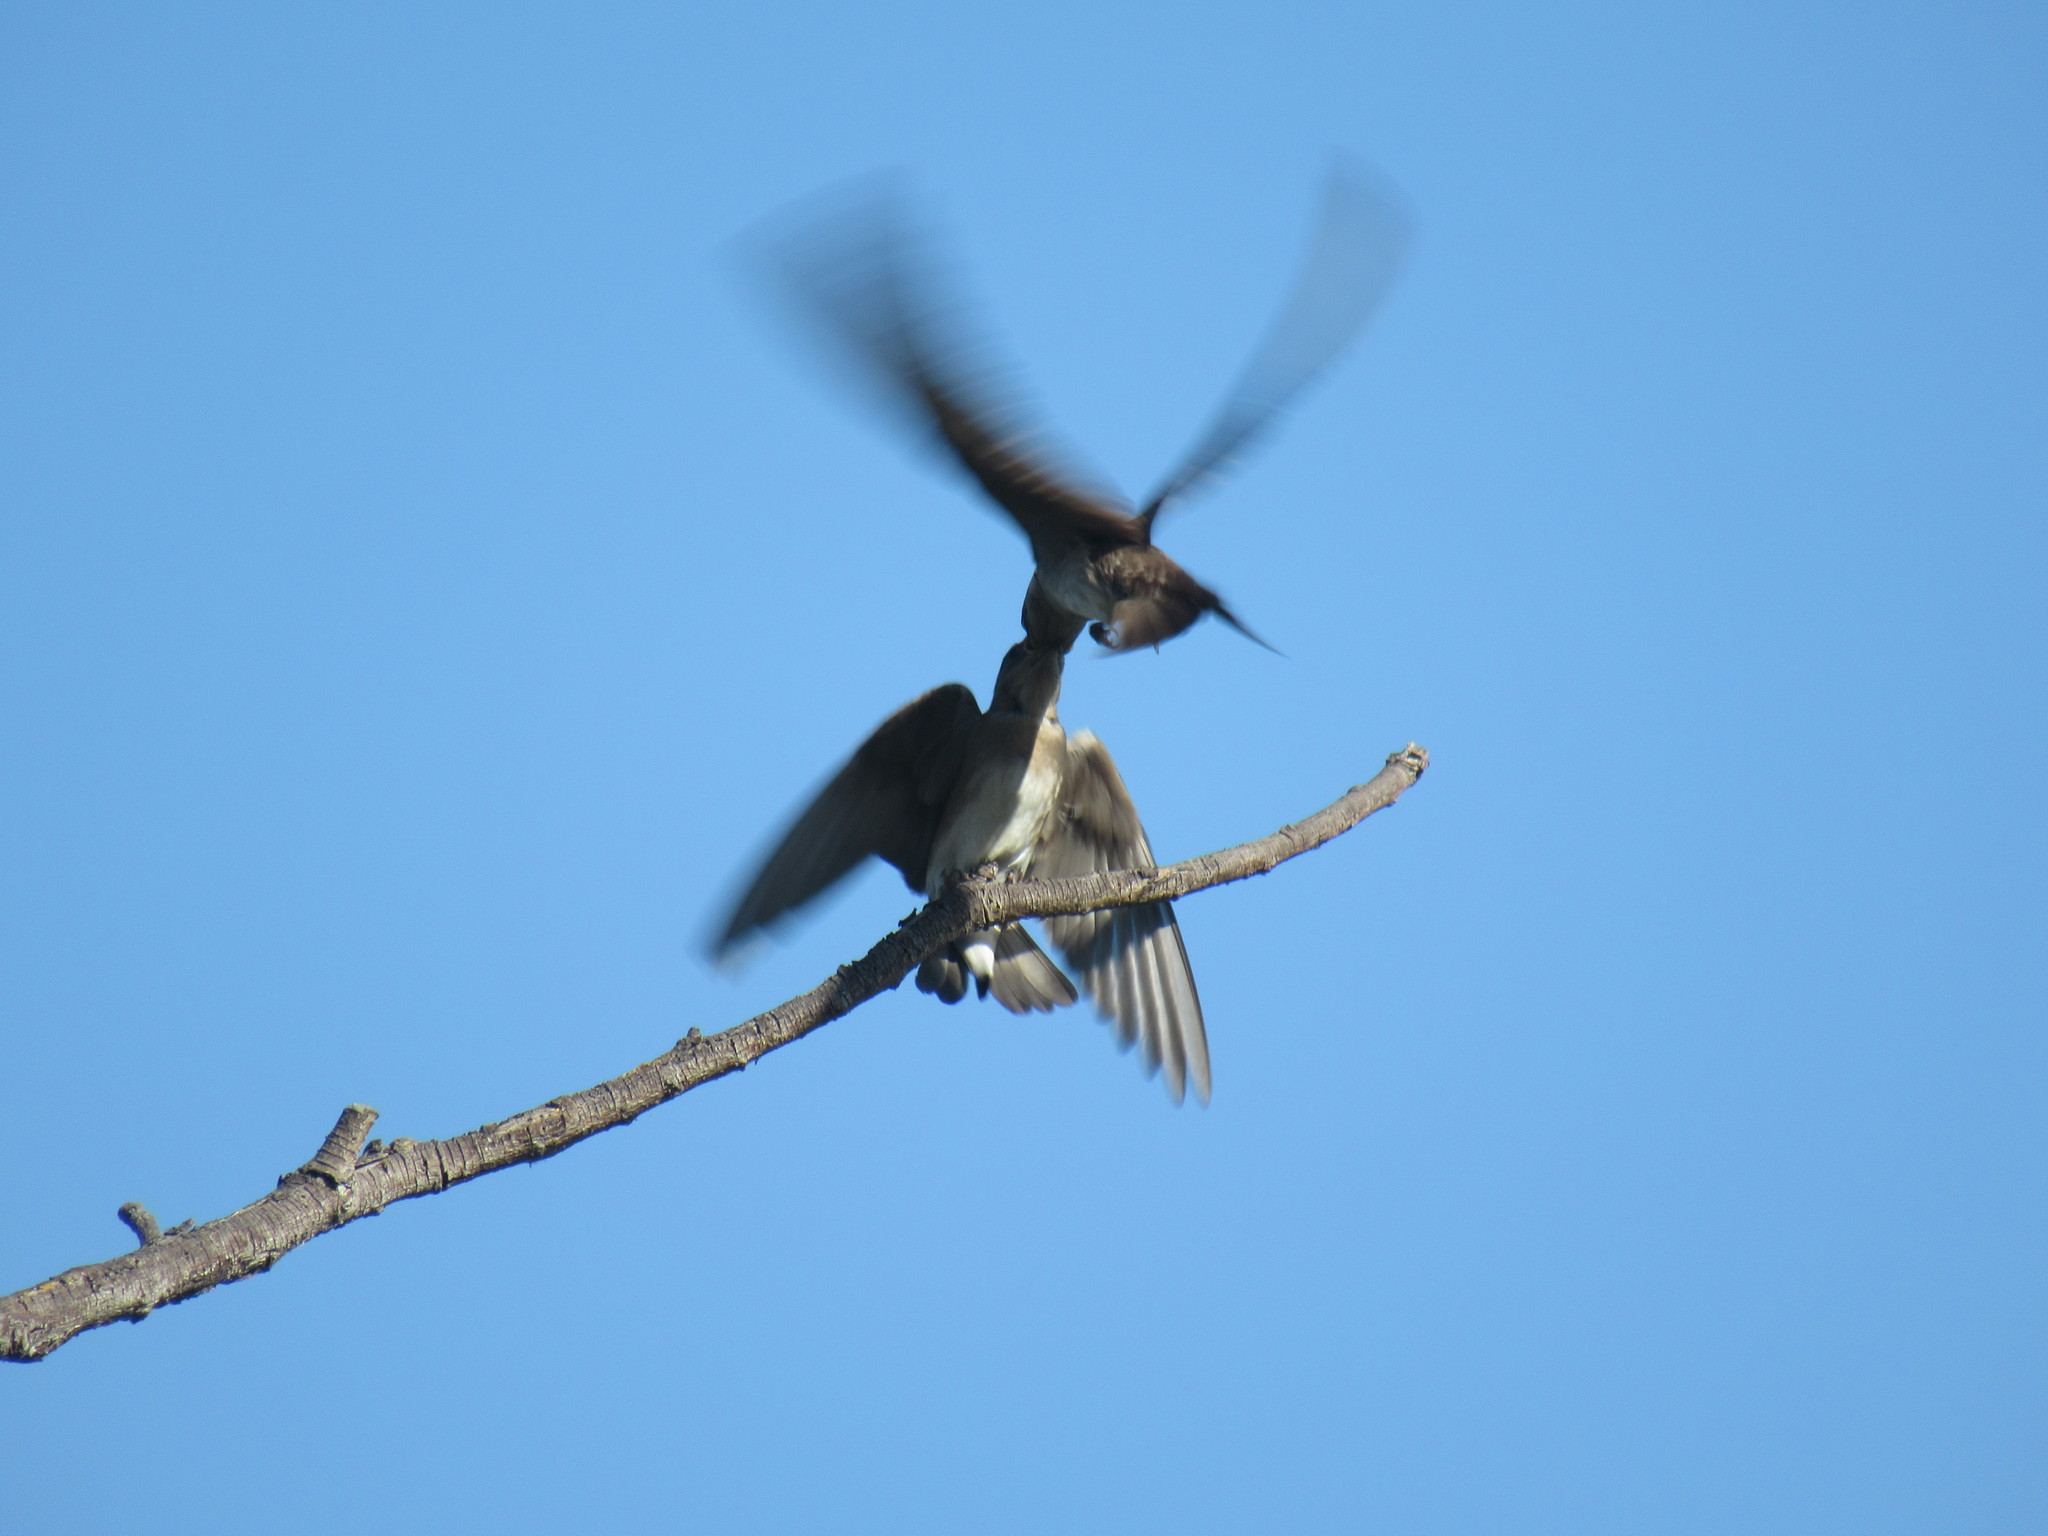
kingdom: Animalia
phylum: Chordata
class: Aves
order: Passeriformes
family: Hirundinidae
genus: Stelgidopteryx
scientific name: Stelgidopteryx serripennis
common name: Northern rough-winged swallow
